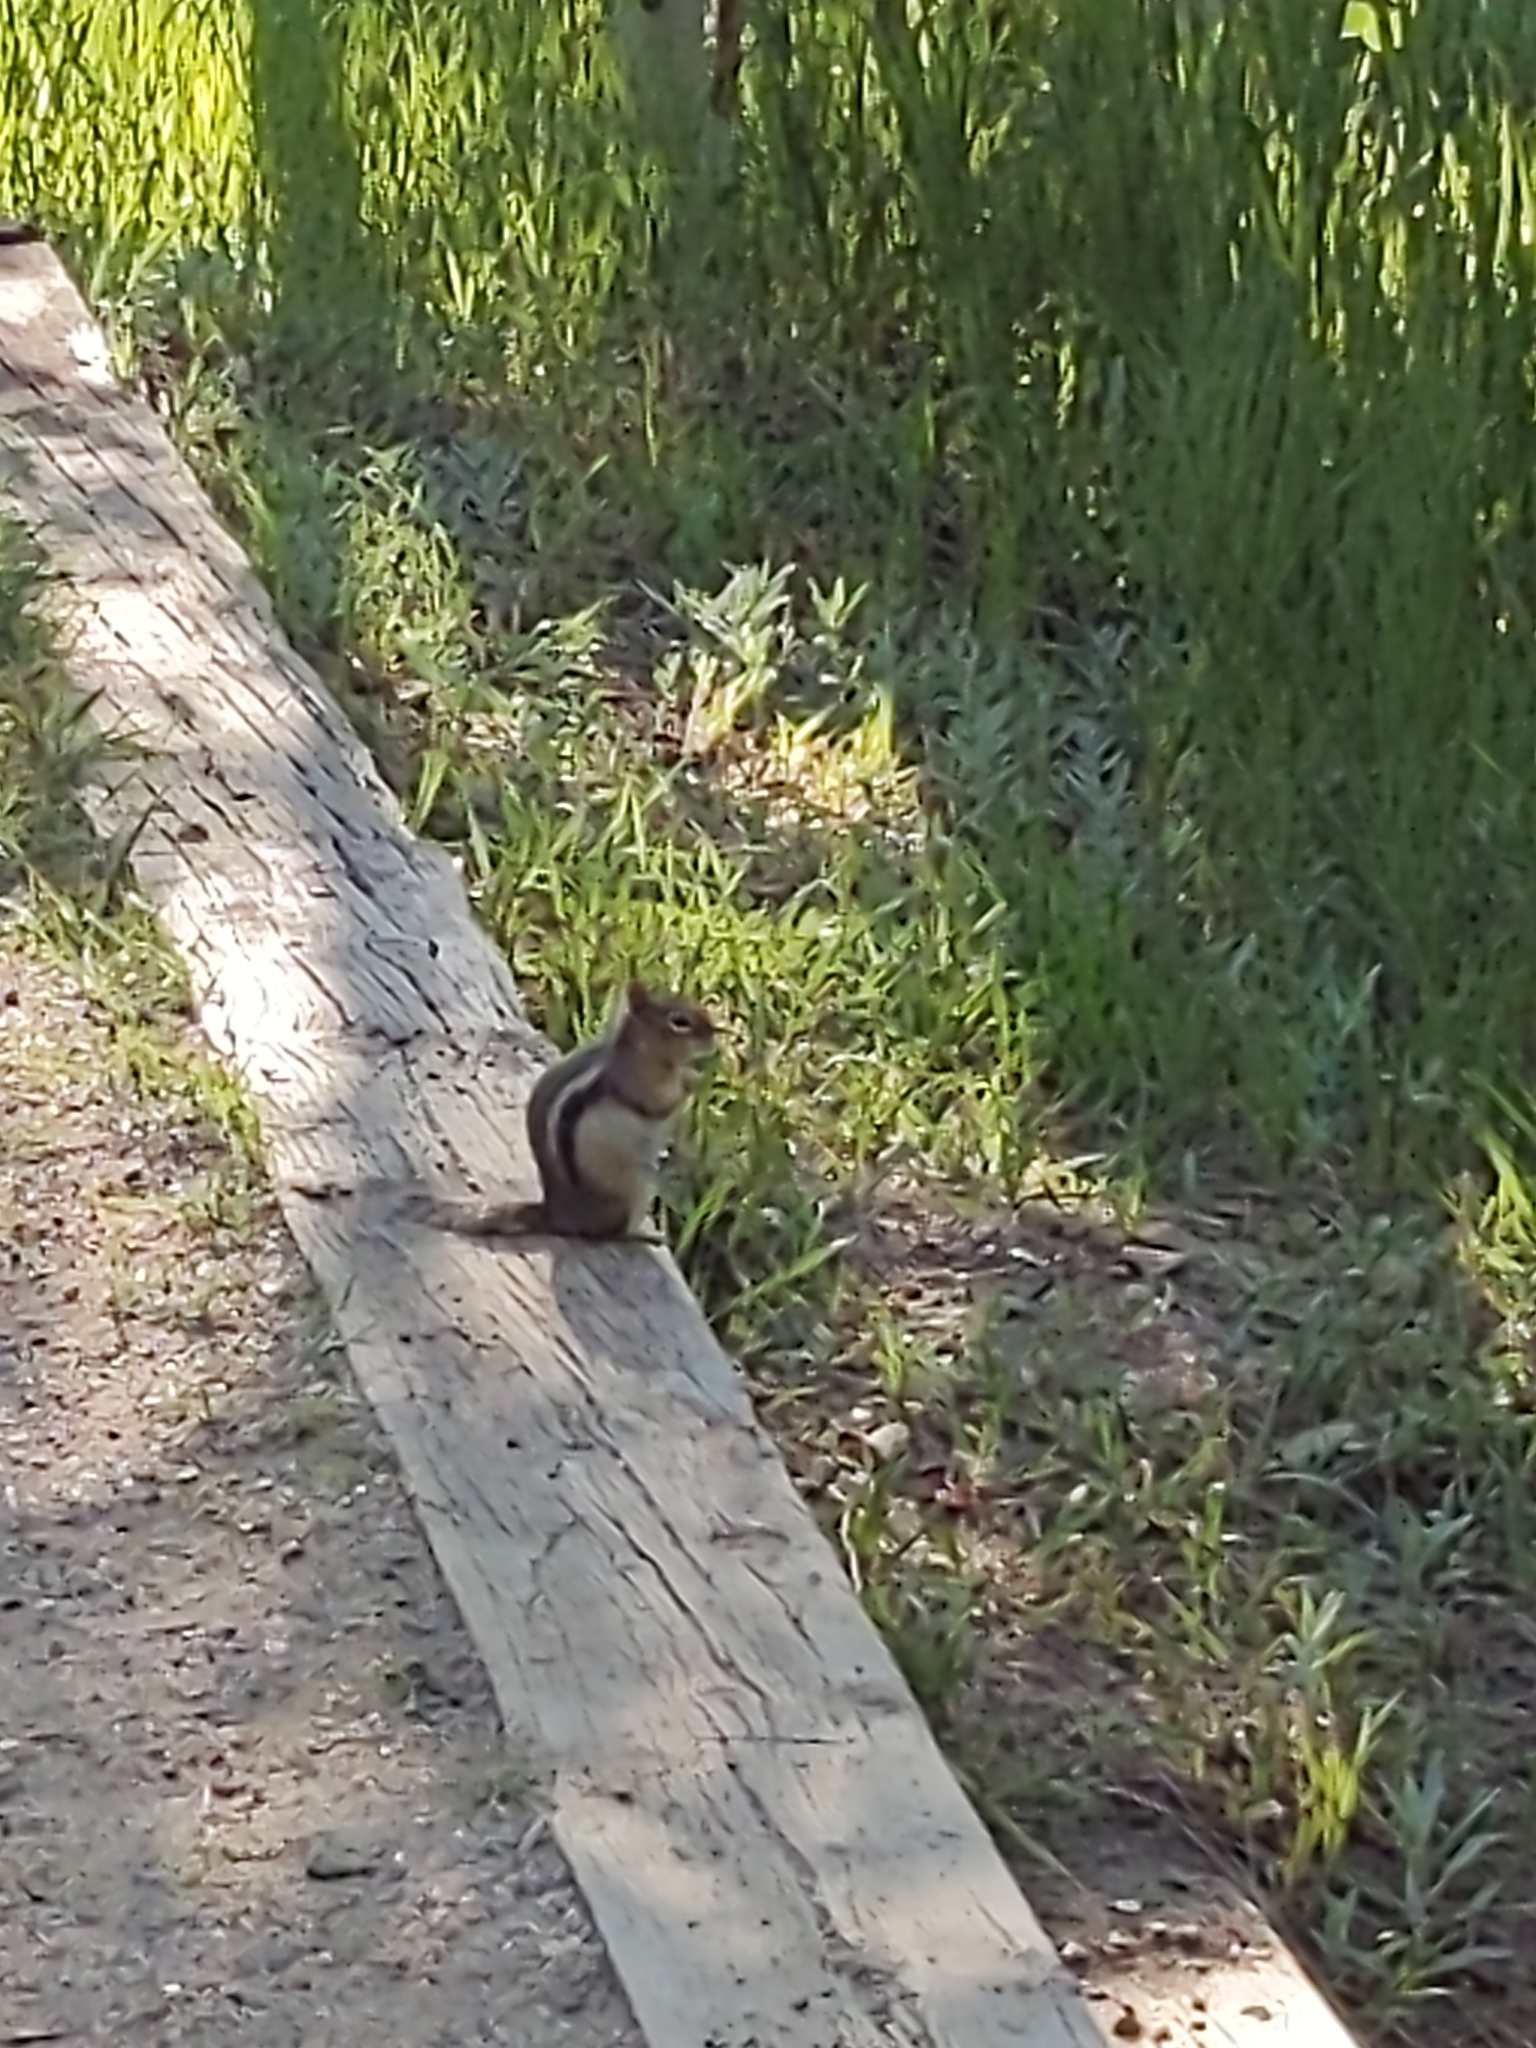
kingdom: Animalia
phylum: Chordata
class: Mammalia
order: Rodentia
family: Sciuridae
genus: Callospermophilus
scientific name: Callospermophilus lateralis
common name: Golden-mantled ground squirrel
